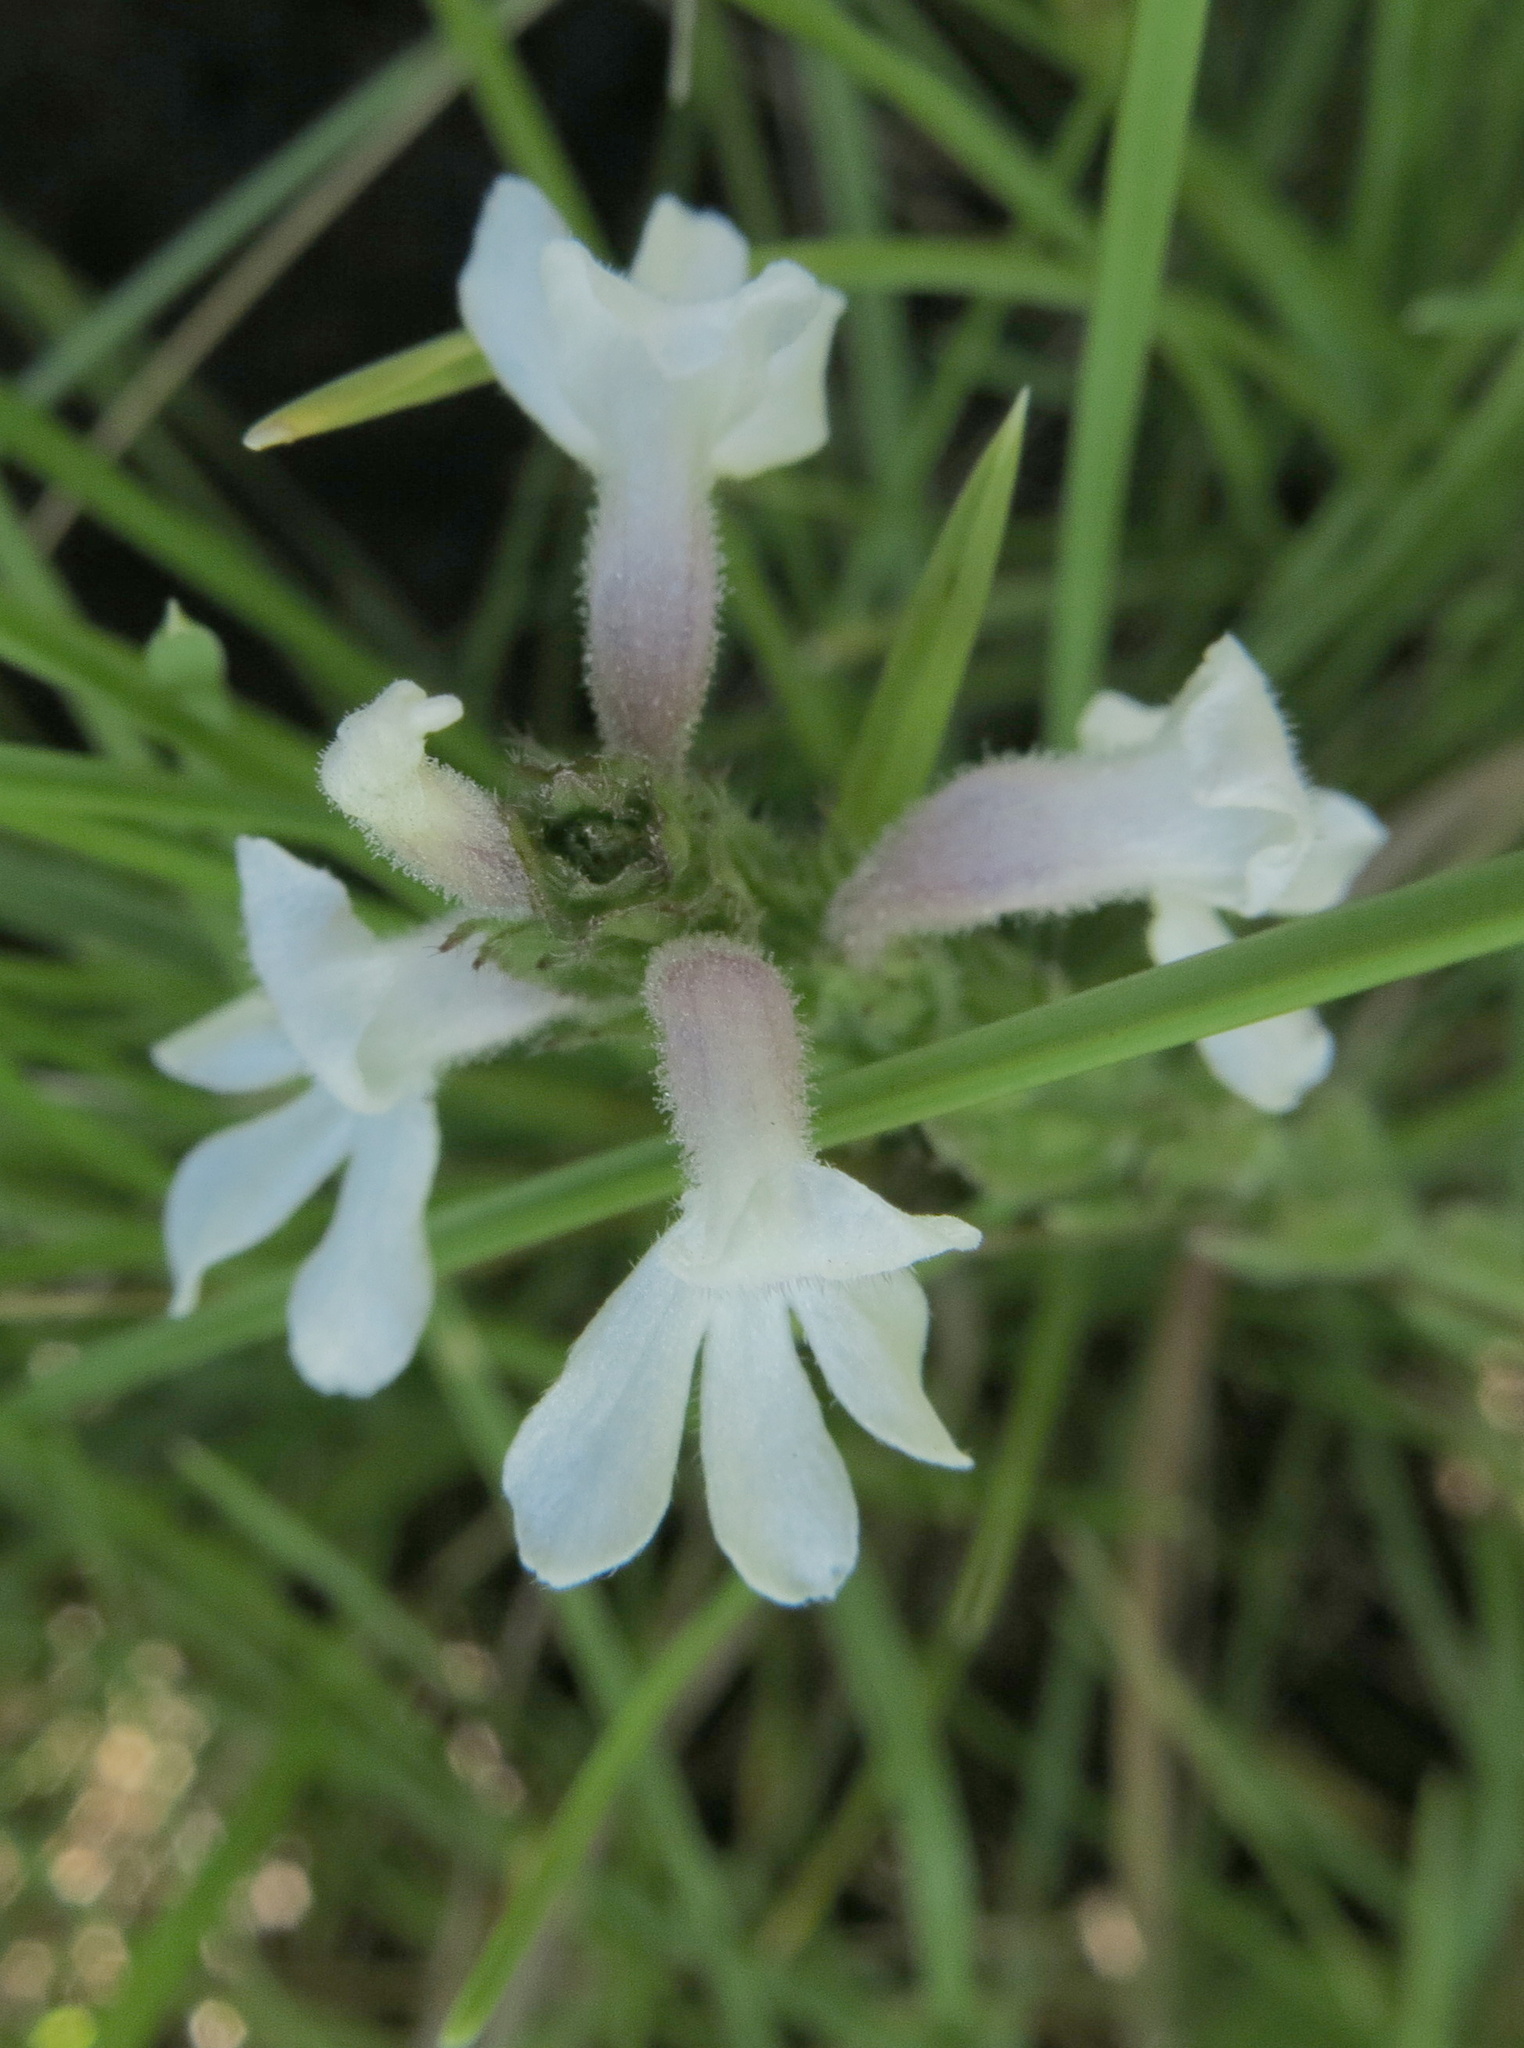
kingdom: Plantae
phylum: Tracheophyta
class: Magnoliopsida
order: Lamiales
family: Orobanchaceae
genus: Striga
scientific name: Striga bilabiata
